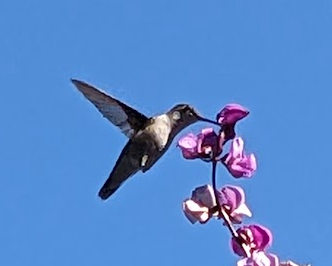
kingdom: Animalia
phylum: Chordata
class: Aves
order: Apodiformes
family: Trochilidae
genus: Archilochus
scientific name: Archilochus colubris
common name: Ruby-throated hummingbird
